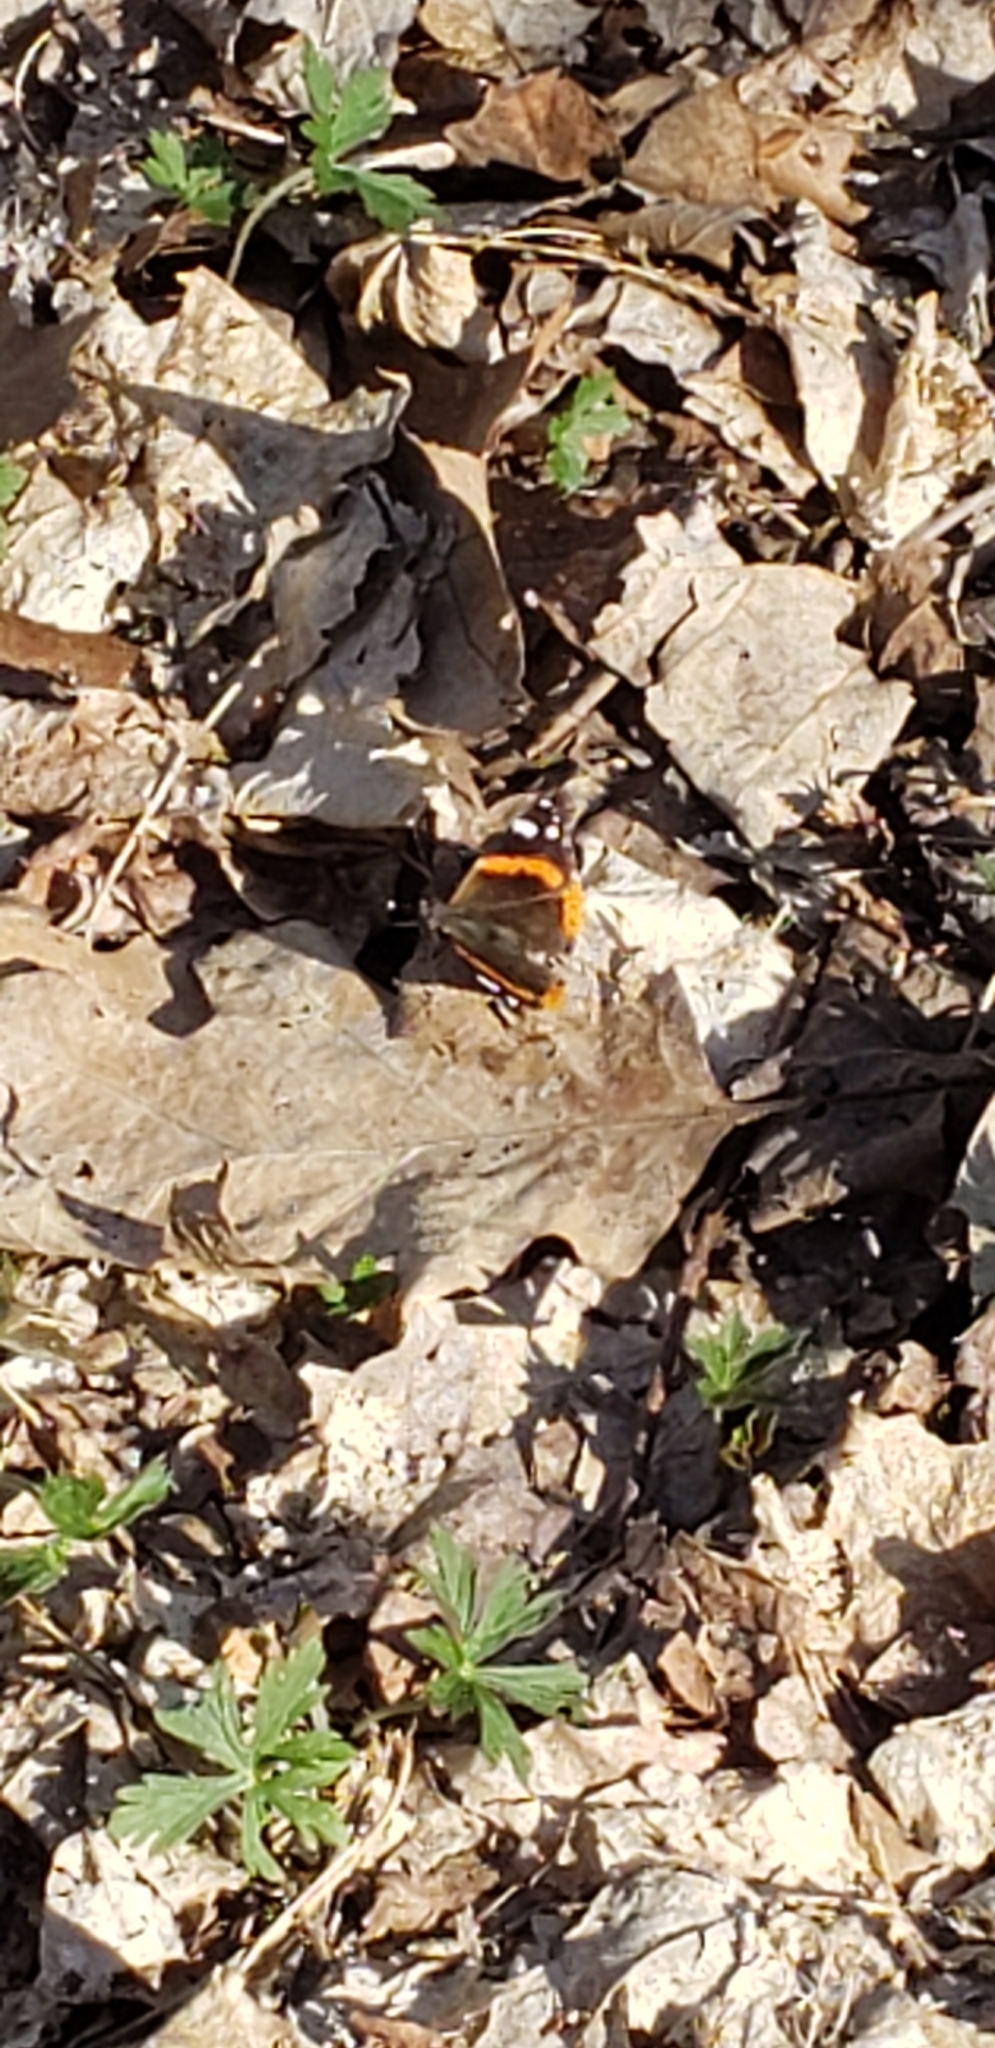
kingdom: Animalia
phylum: Arthropoda
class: Insecta
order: Lepidoptera
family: Nymphalidae
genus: Vanessa
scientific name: Vanessa atalanta
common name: Red admiral
